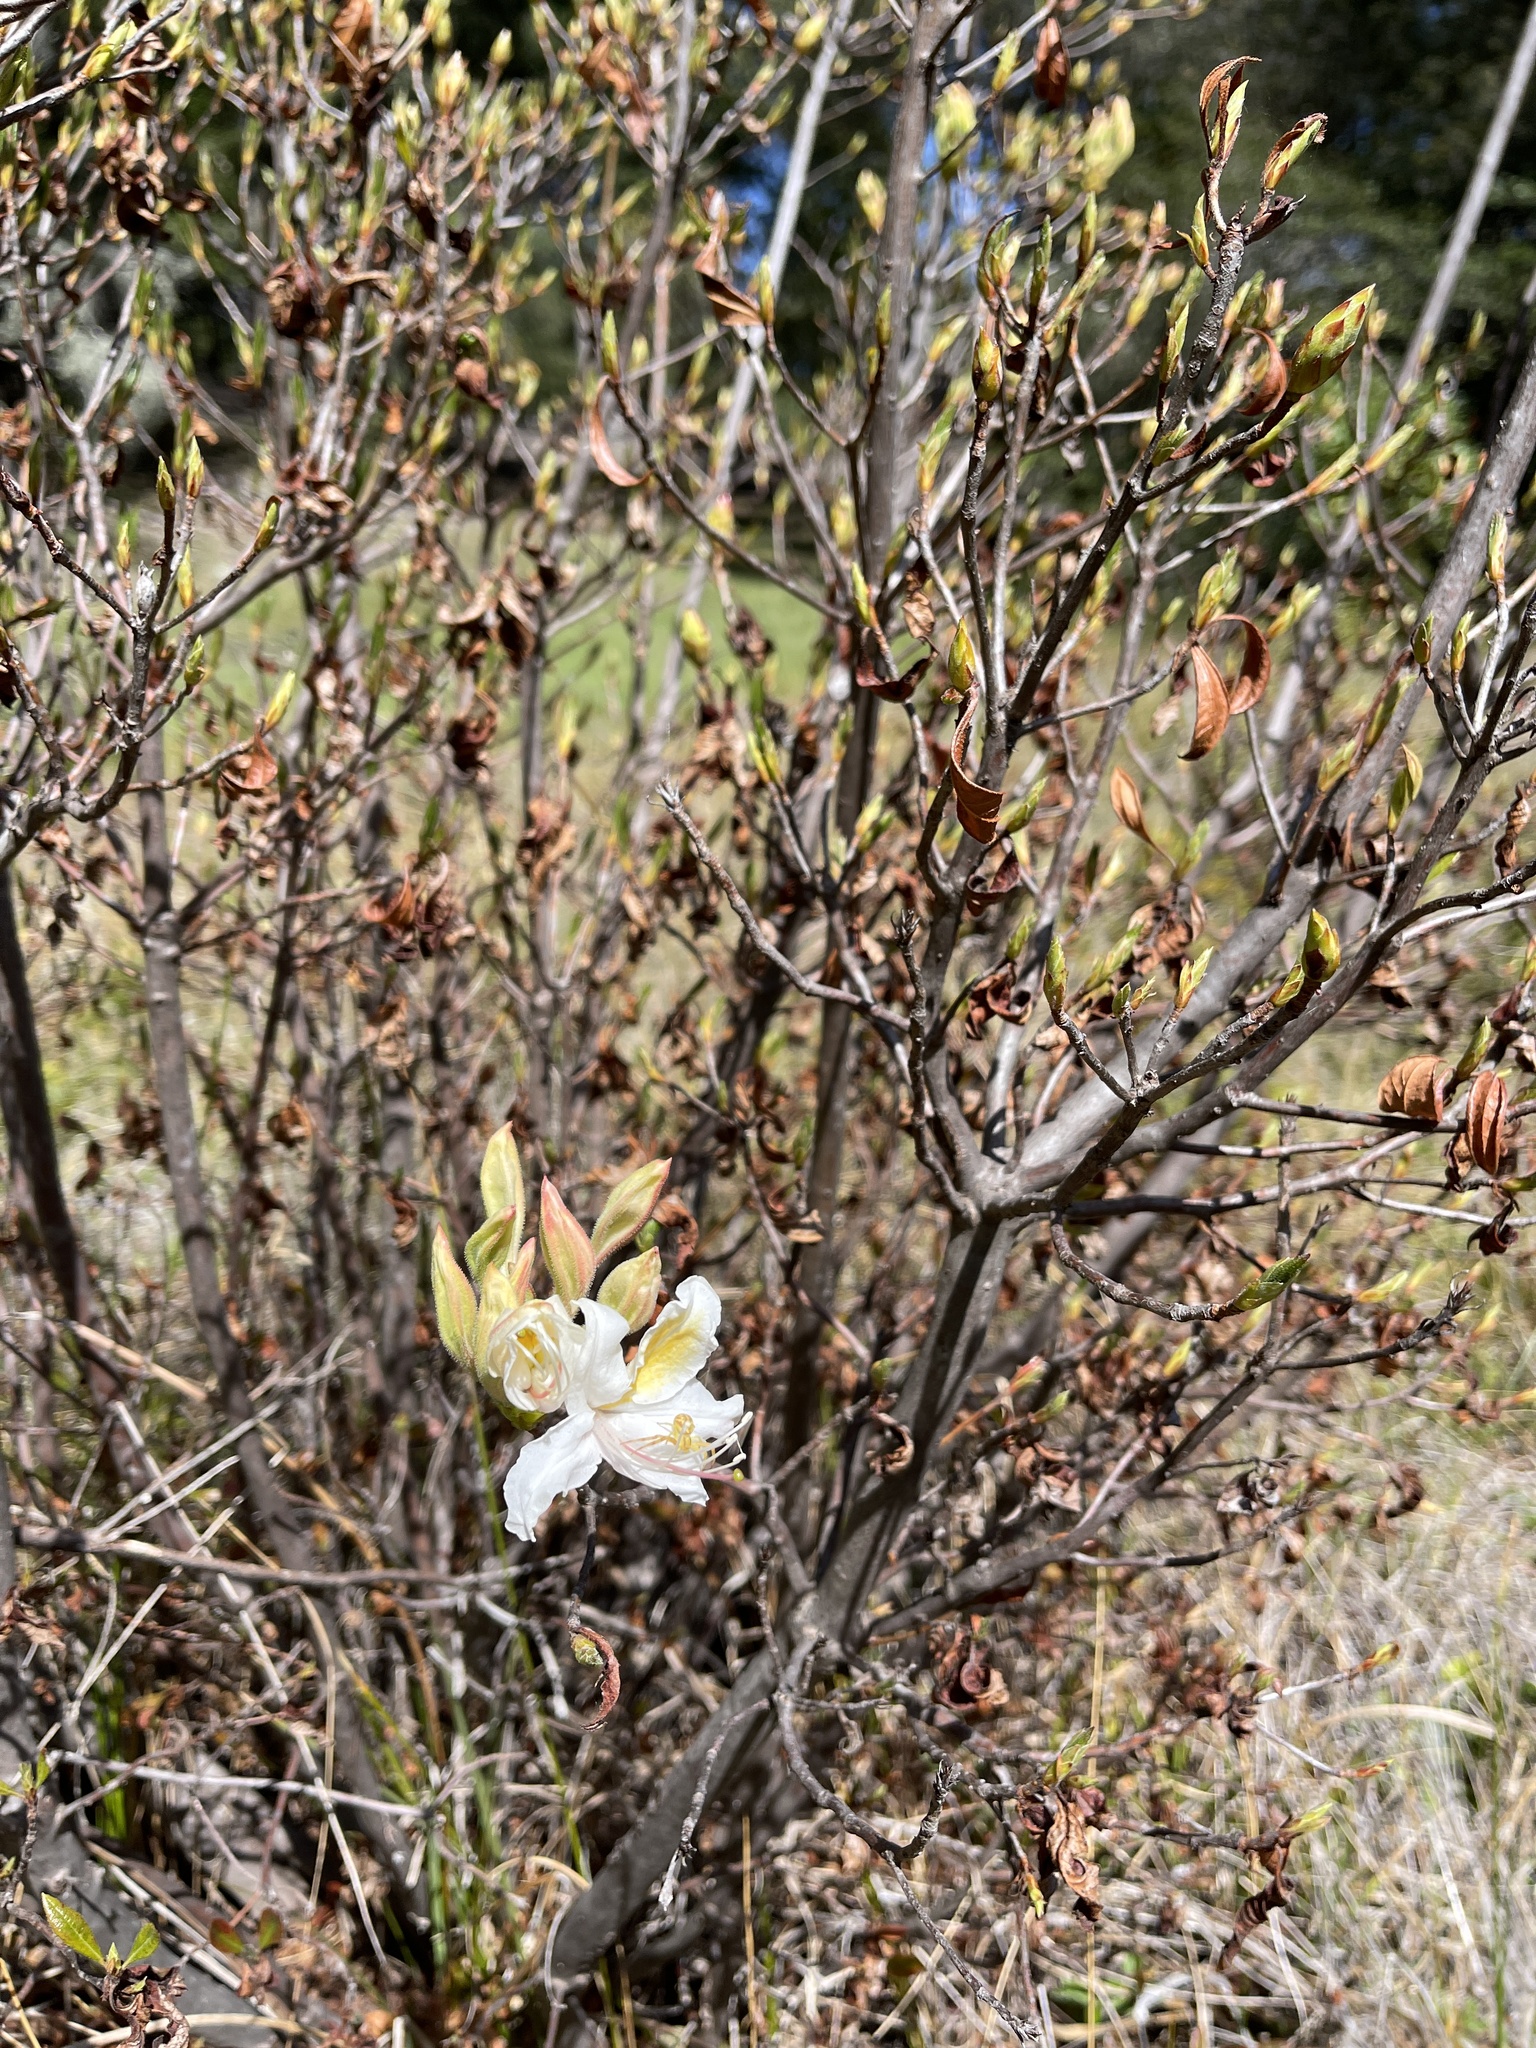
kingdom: Plantae
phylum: Tracheophyta
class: Magnoliopsida
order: Ericales
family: Ericaceae
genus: Rhododendron
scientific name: Rhododendron occidentale
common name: Western azalea
